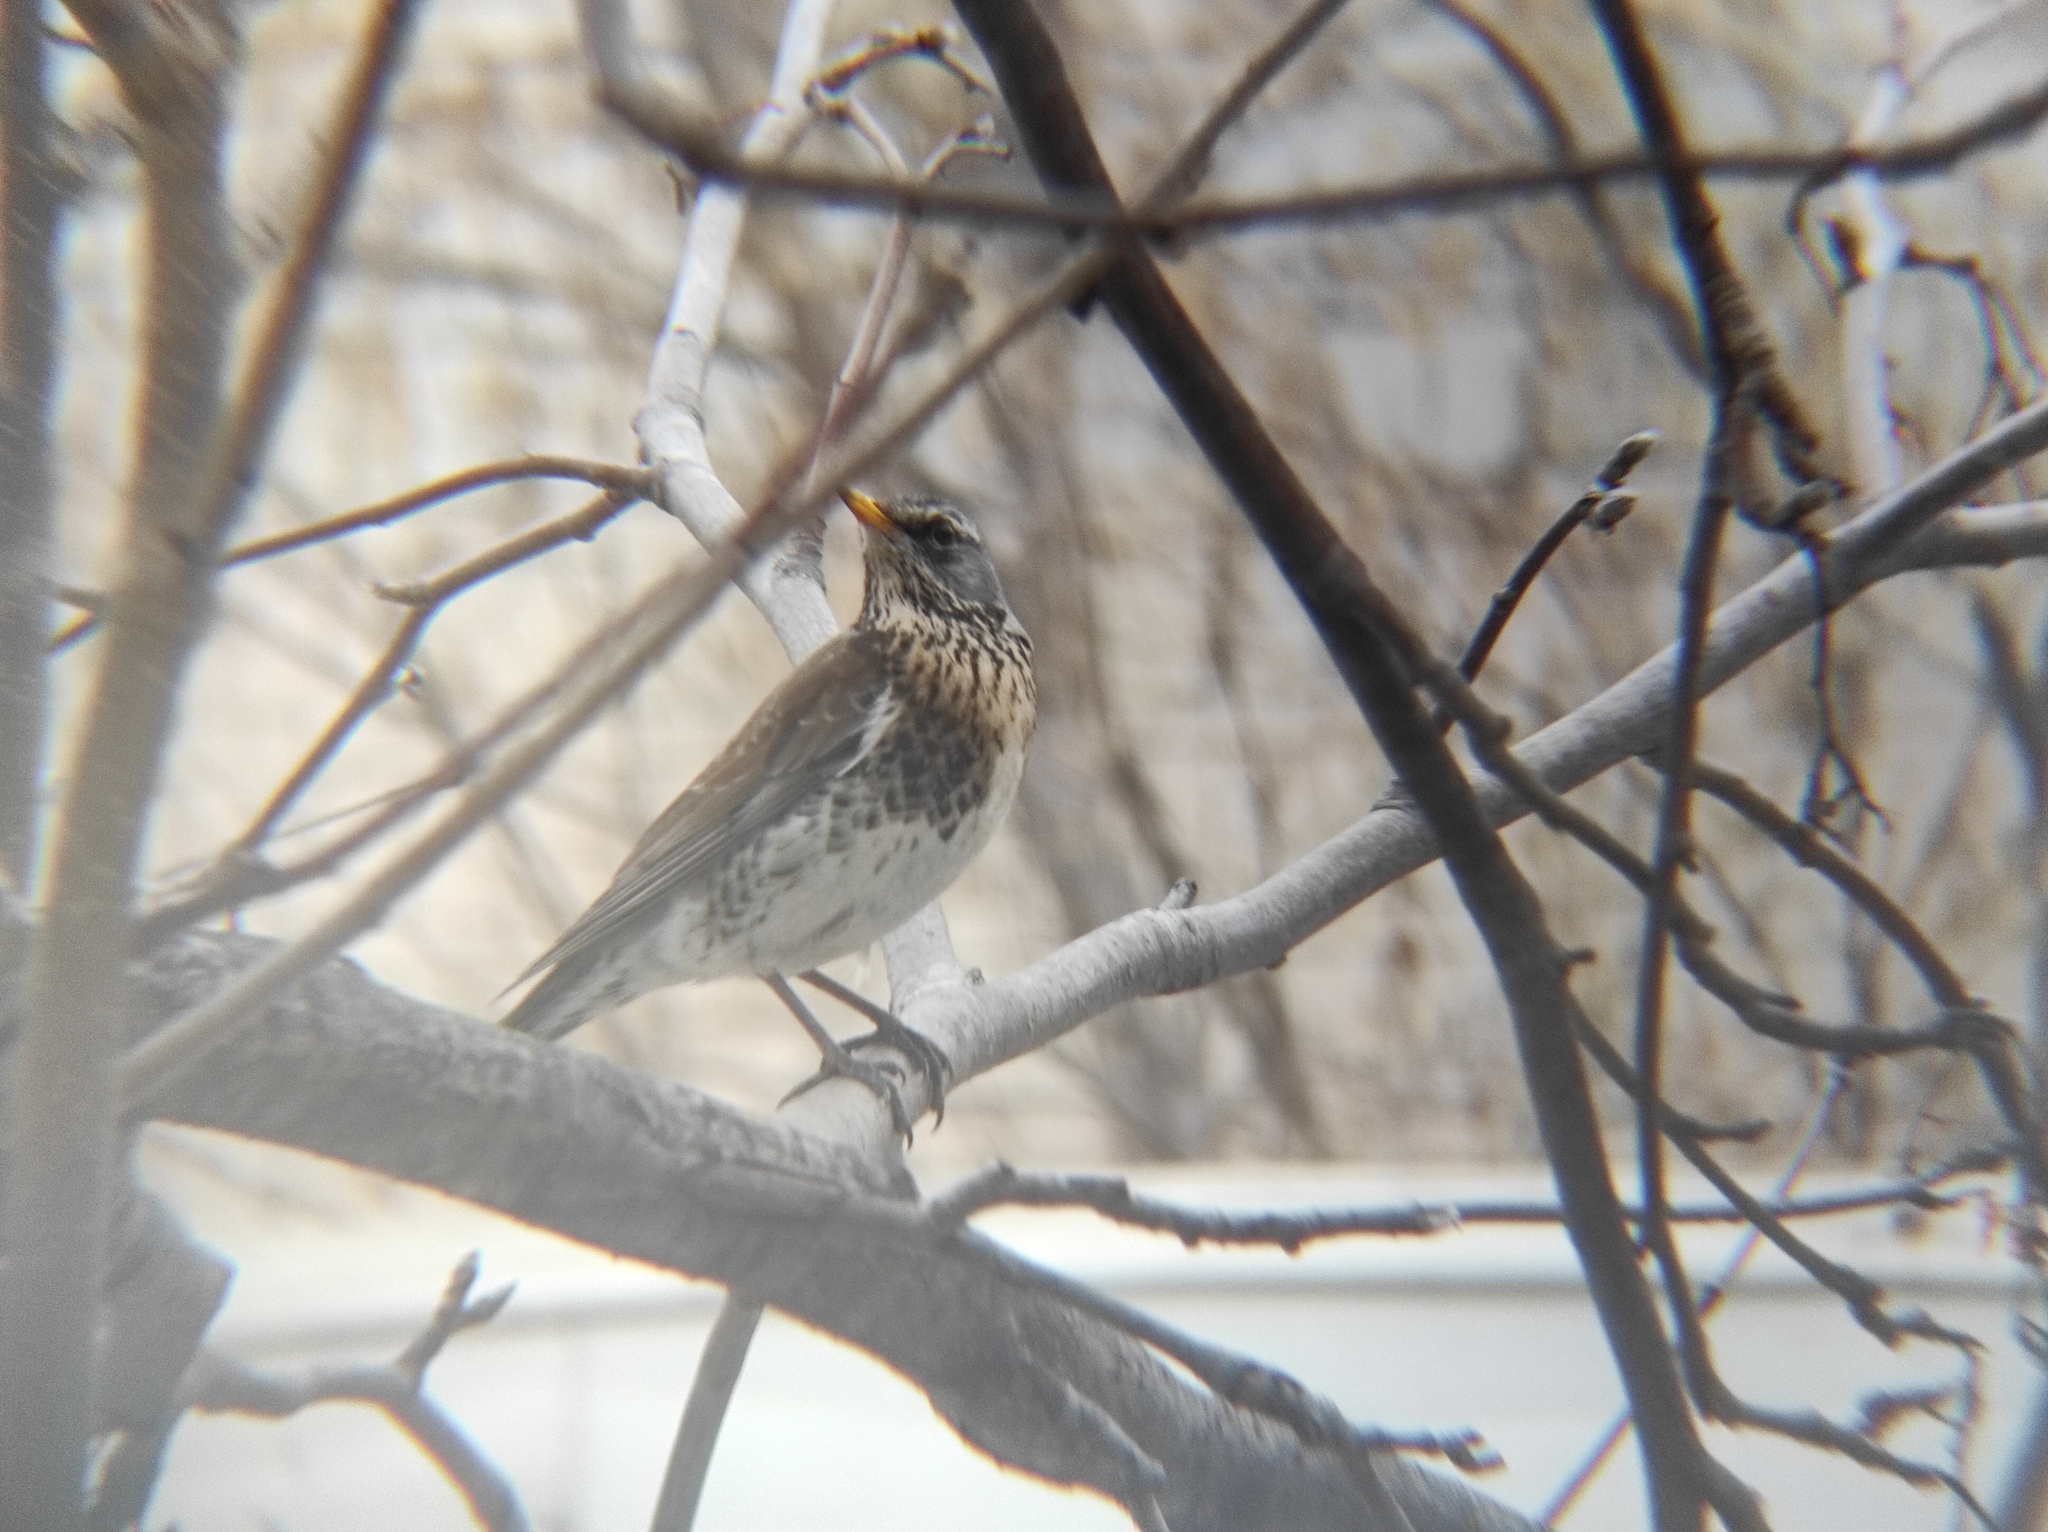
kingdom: Animalia
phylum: Chordata
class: Aves
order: Passeriformes
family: Turdidae
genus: Turdus
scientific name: Turdus pilaris
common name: Fieldfare
